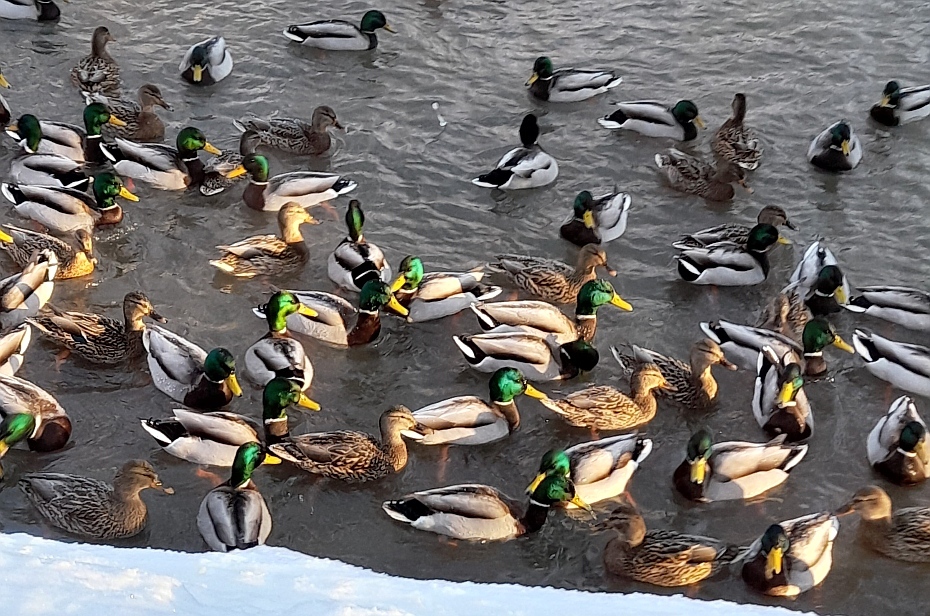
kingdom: Animalia
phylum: Chordata
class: Aves
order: Anseriformes
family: Anatidae
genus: Anas
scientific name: Anas platyrhynchos
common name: Mallard
